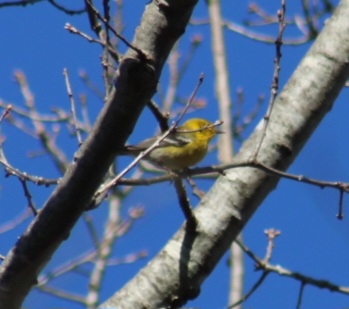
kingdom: Animalia
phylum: Chordata
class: Aves
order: Passeriformes
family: Parulidae
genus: Setophaga
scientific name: Setophaga pinus
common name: Pine warbler
